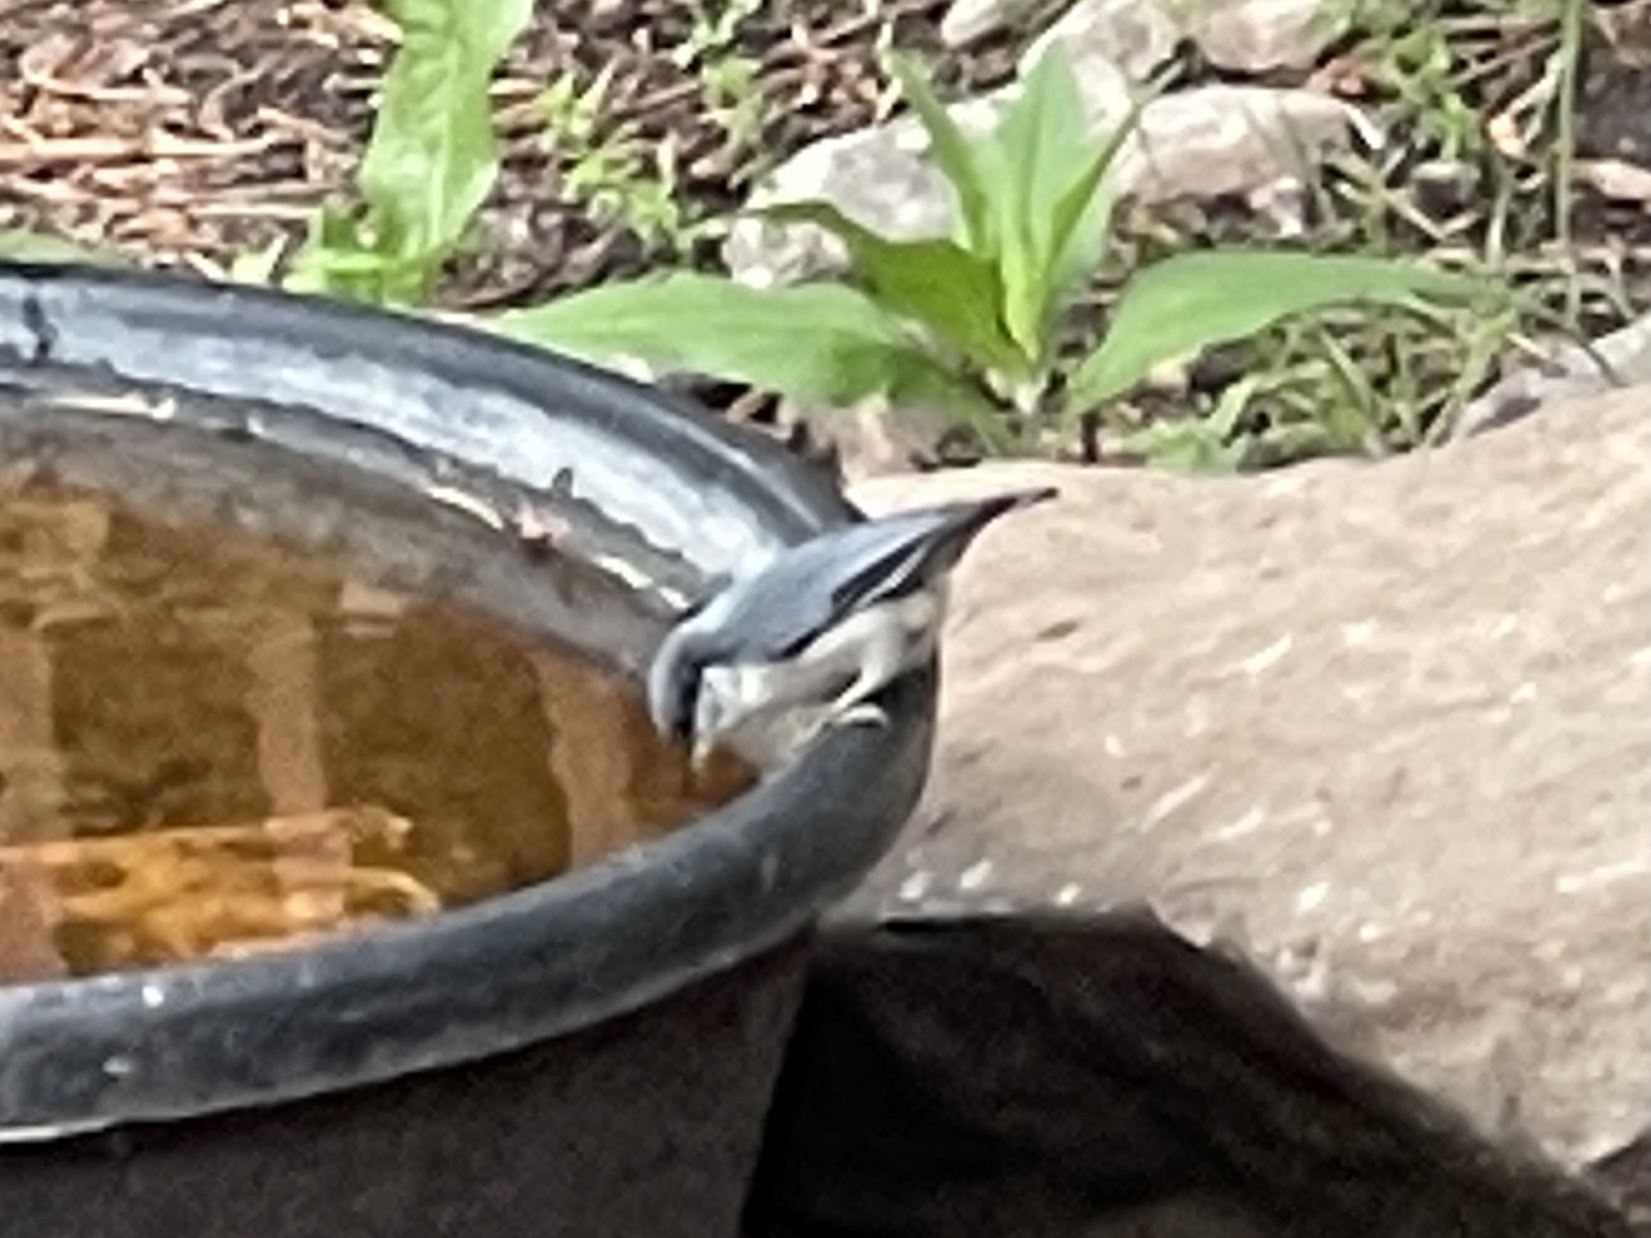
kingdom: Animalia
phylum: Chordata
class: Aves
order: Passeriformes
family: Sittidae
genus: Sitta
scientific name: Sitta pygmaea
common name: Pygmy nuthatch
